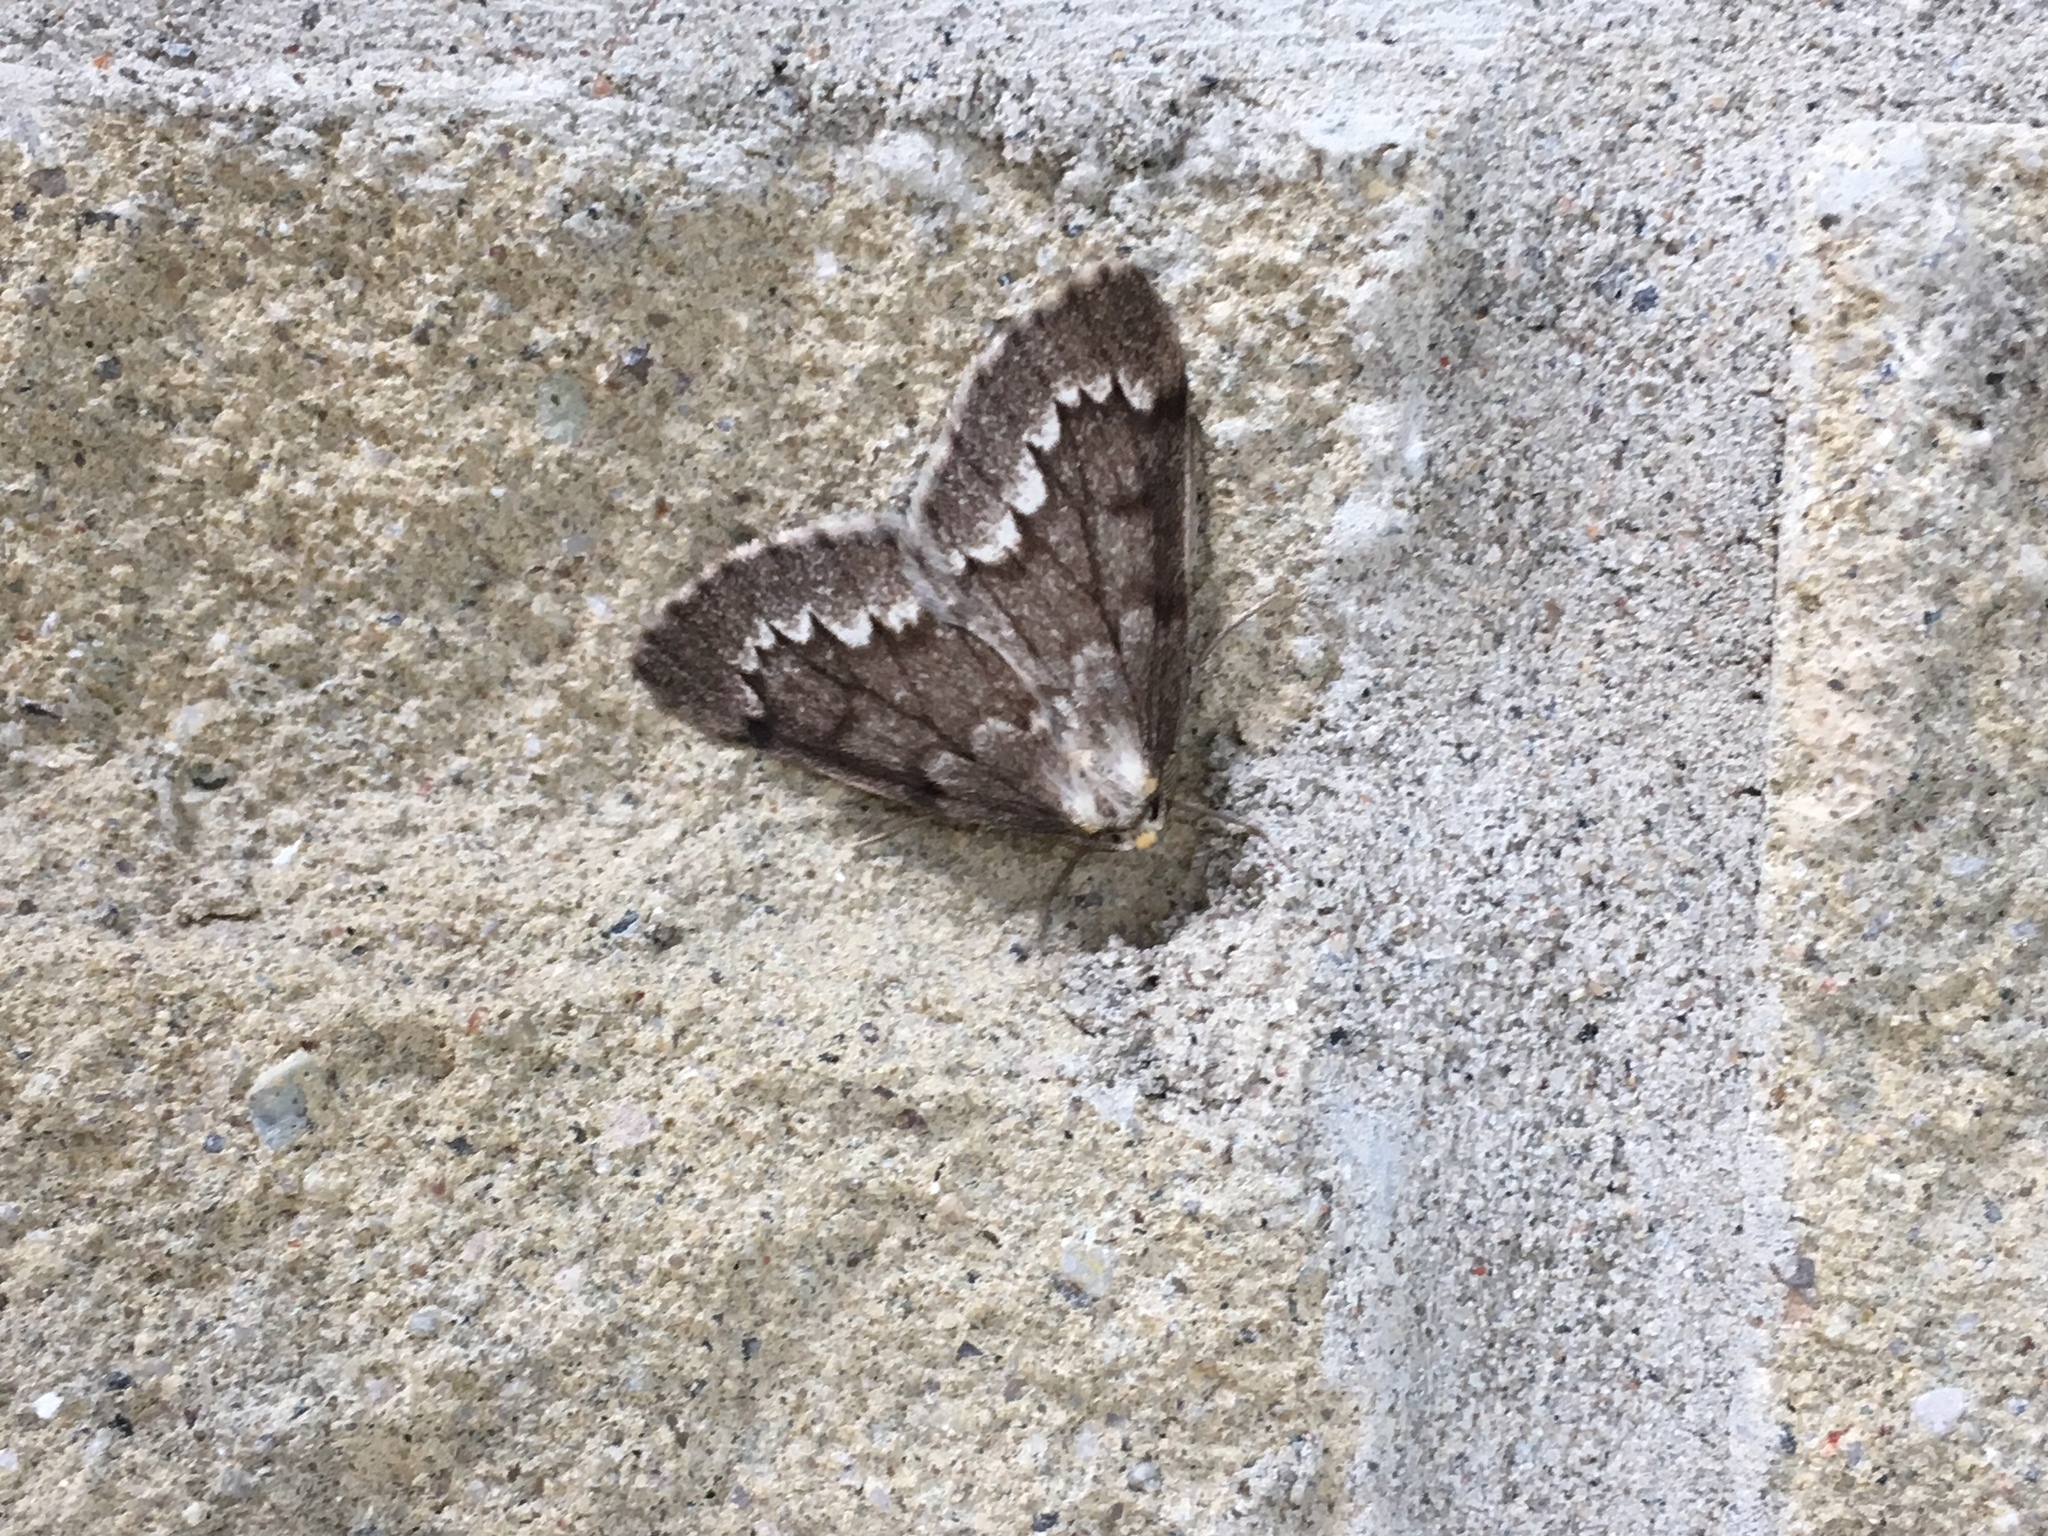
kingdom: Animalia
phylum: Arthropoda
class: Insecta
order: Lepidoptera
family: Geometridae
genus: Nepytia
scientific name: Nepytia canosaria
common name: False hemlock looper
